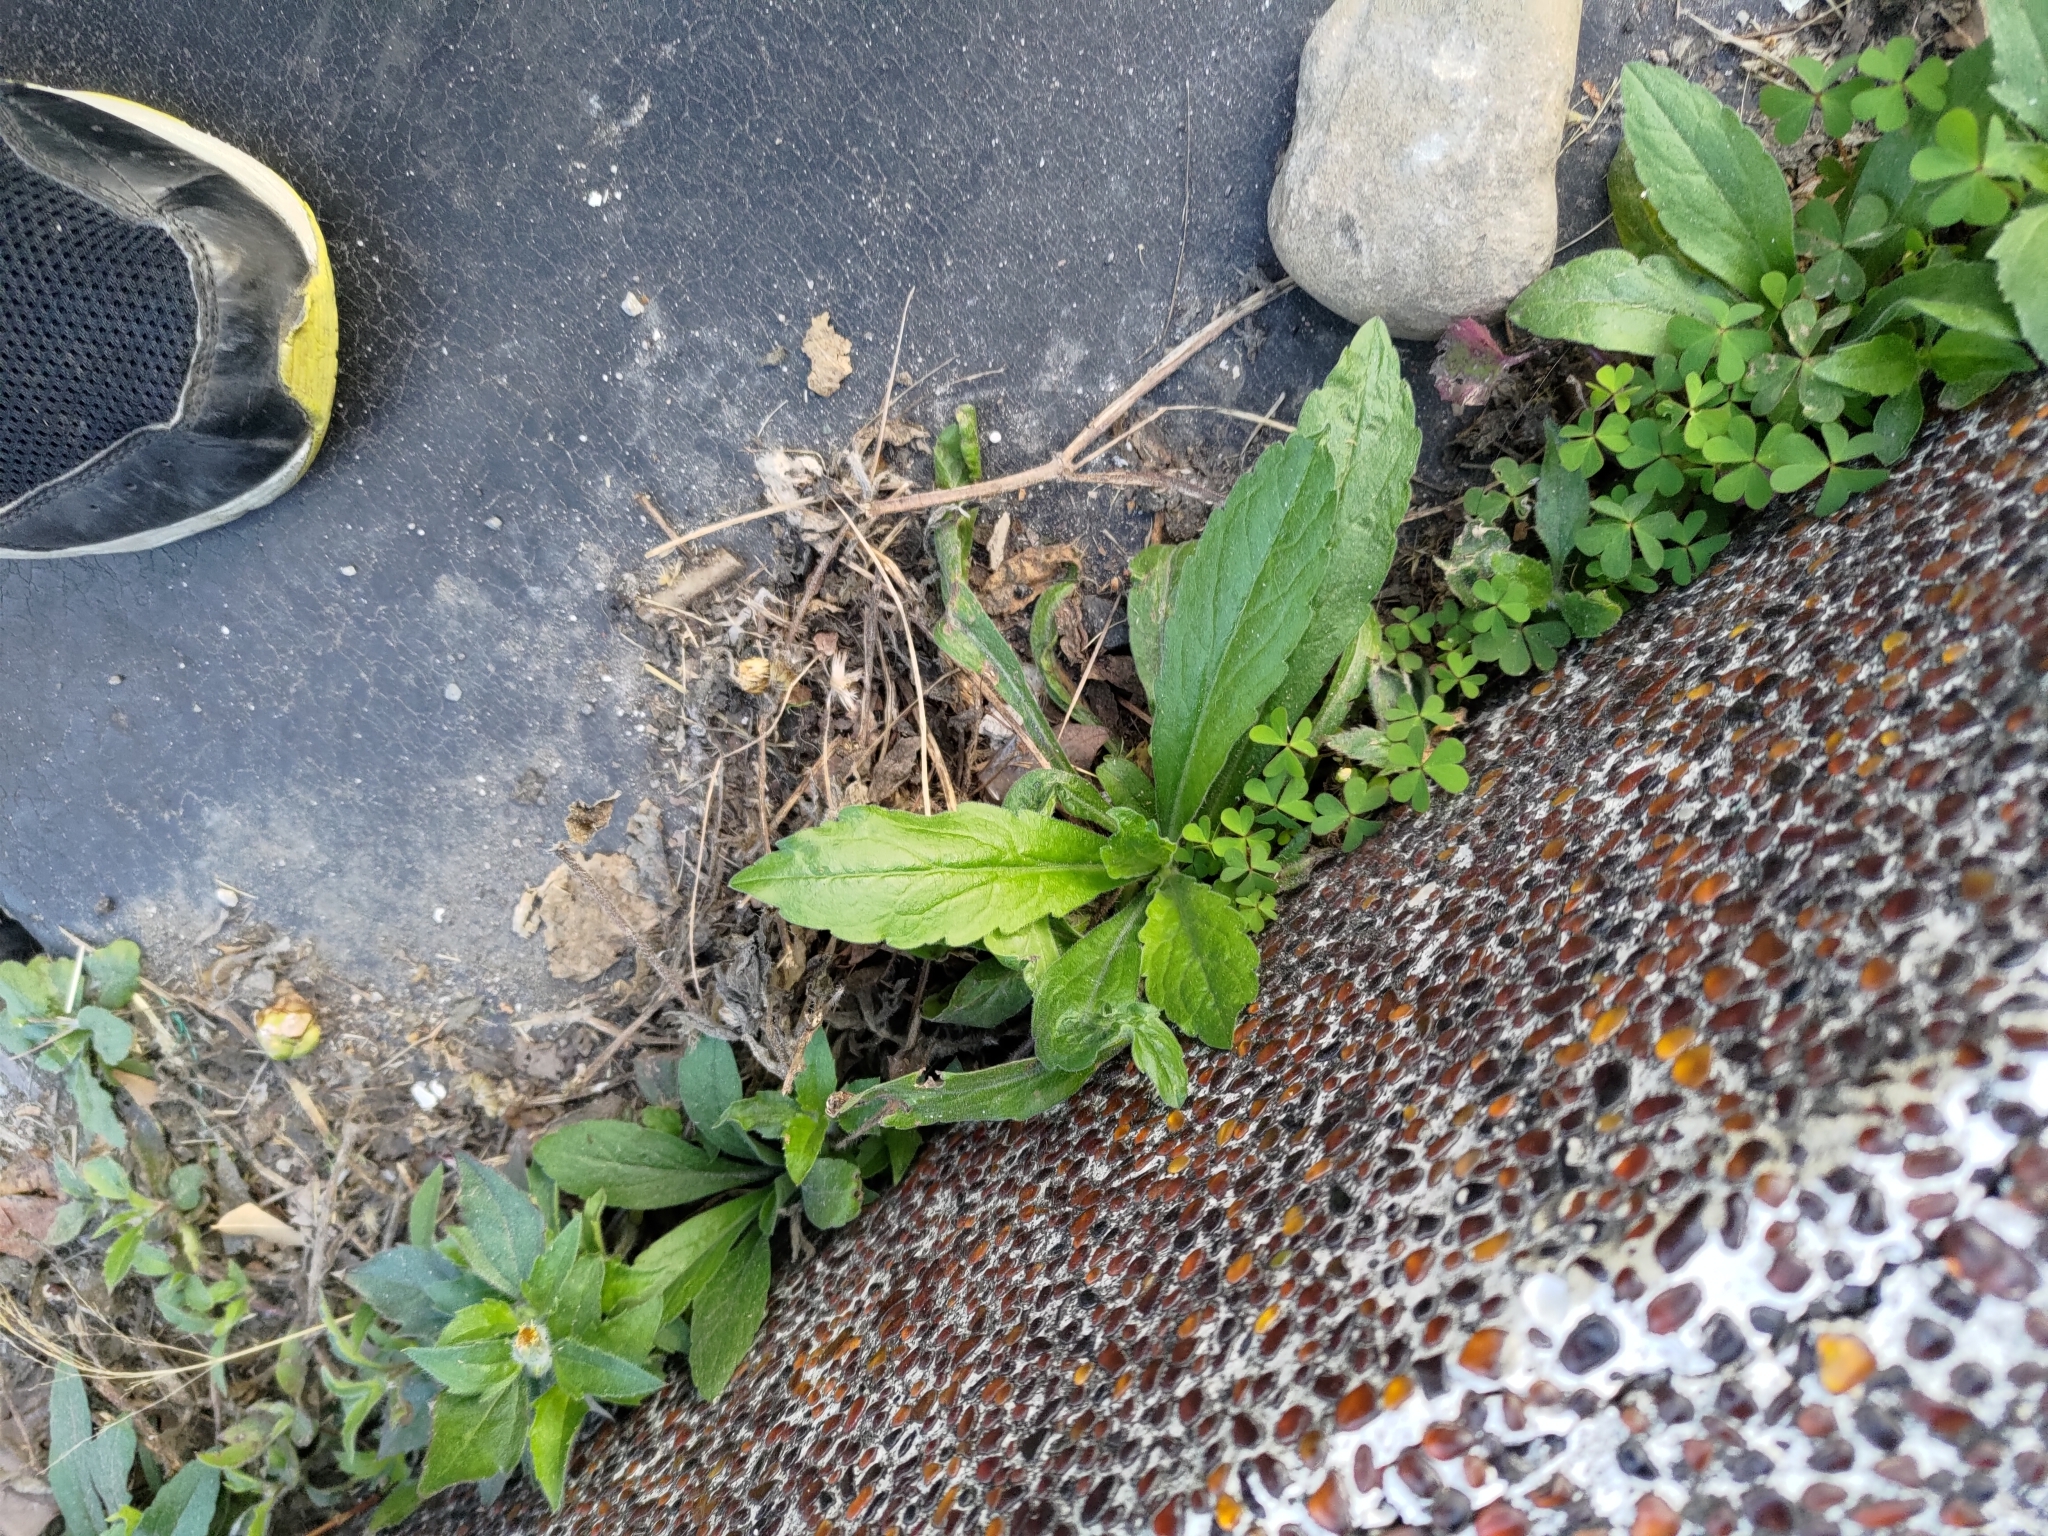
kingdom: Plantae
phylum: Tracheophyta
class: Magnoliopsida
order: Asterales
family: Asteraceae
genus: Erigeron
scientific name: Erigeron sumatrensis
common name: Daisy
